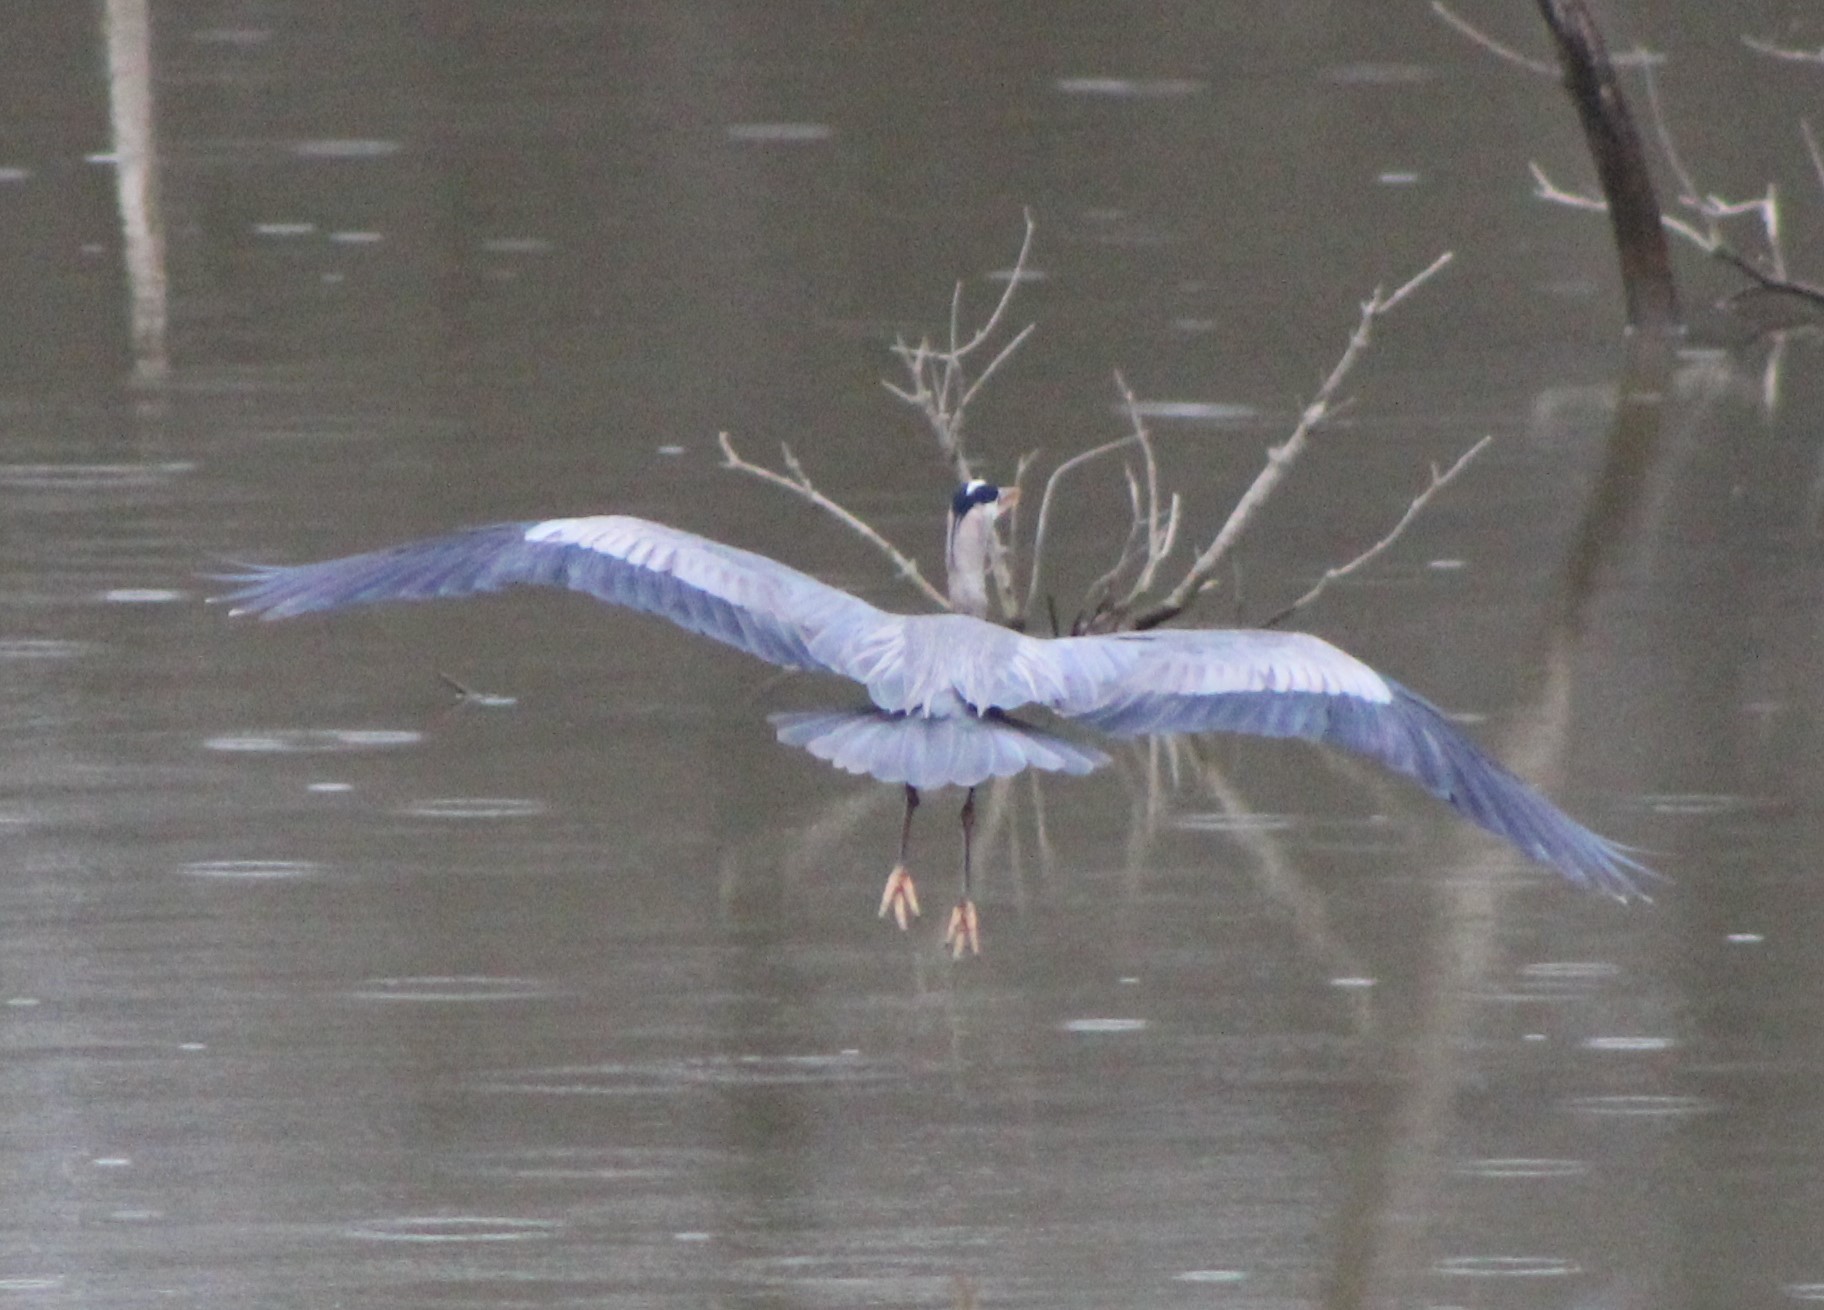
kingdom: Animalia
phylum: Chordata
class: Aves
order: Pelecaniformes
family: Ardeidae
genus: Ardea
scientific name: Ardea herodias
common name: Great blue heron
